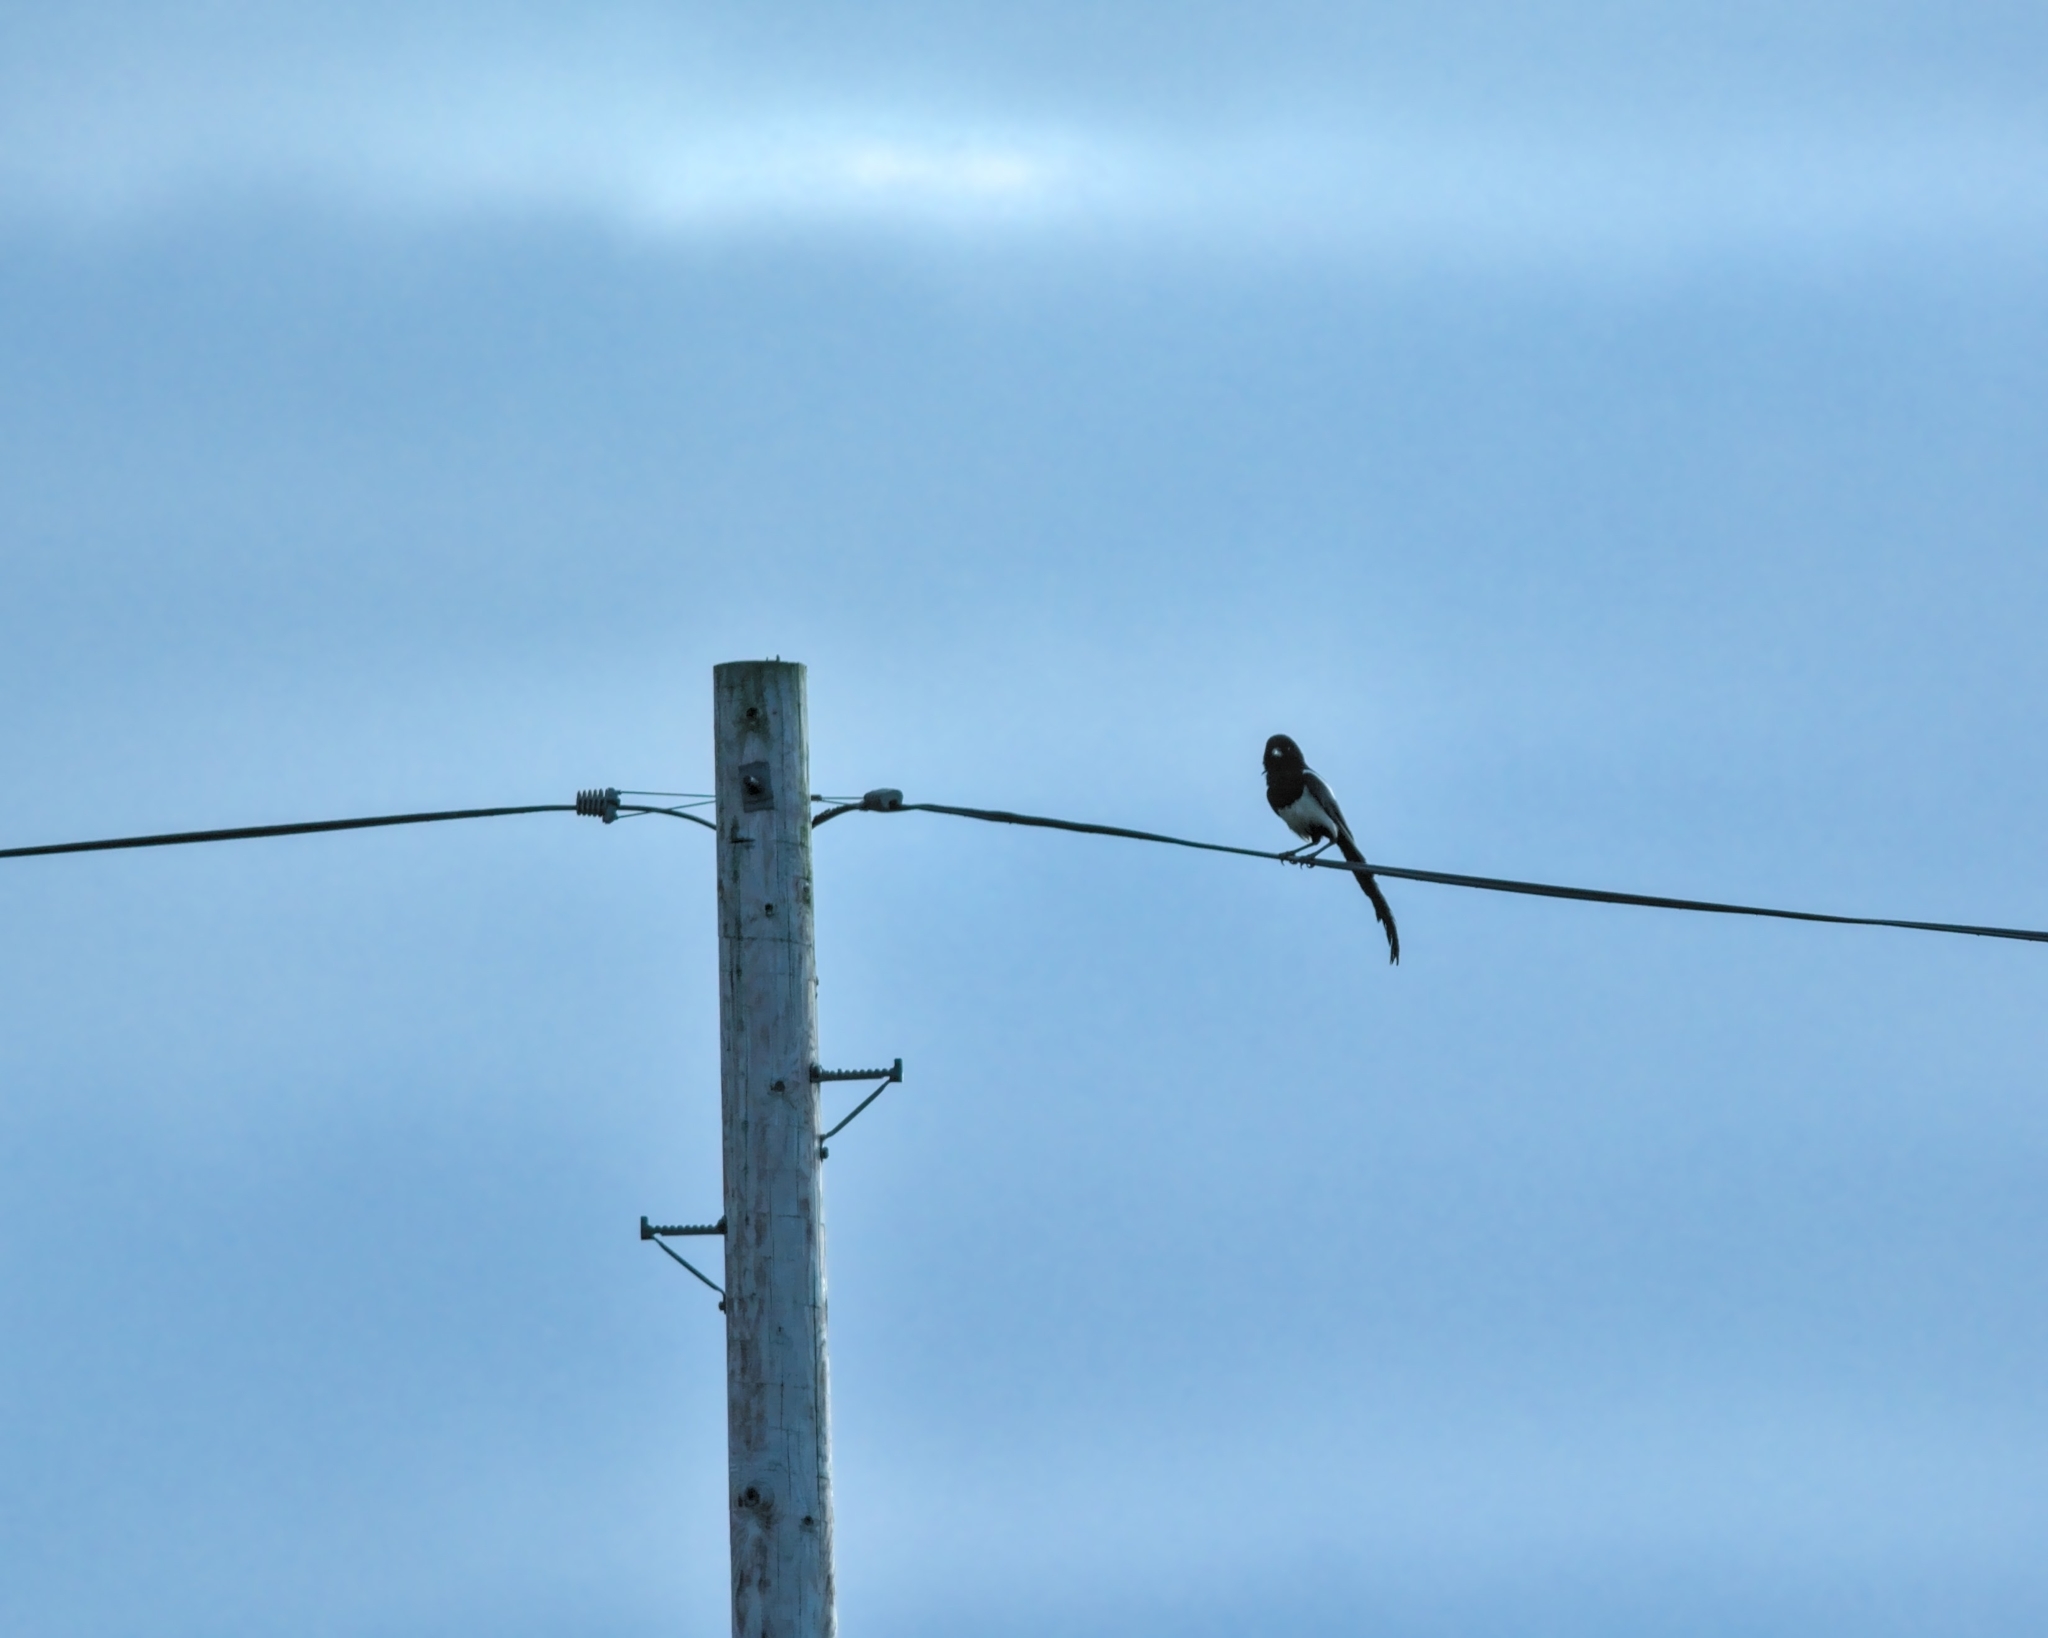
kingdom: Animalia
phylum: Chordata
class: Aves
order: Passeriformes
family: Corvidae
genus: Pica
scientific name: Pica pica
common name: Eurasian magpie
